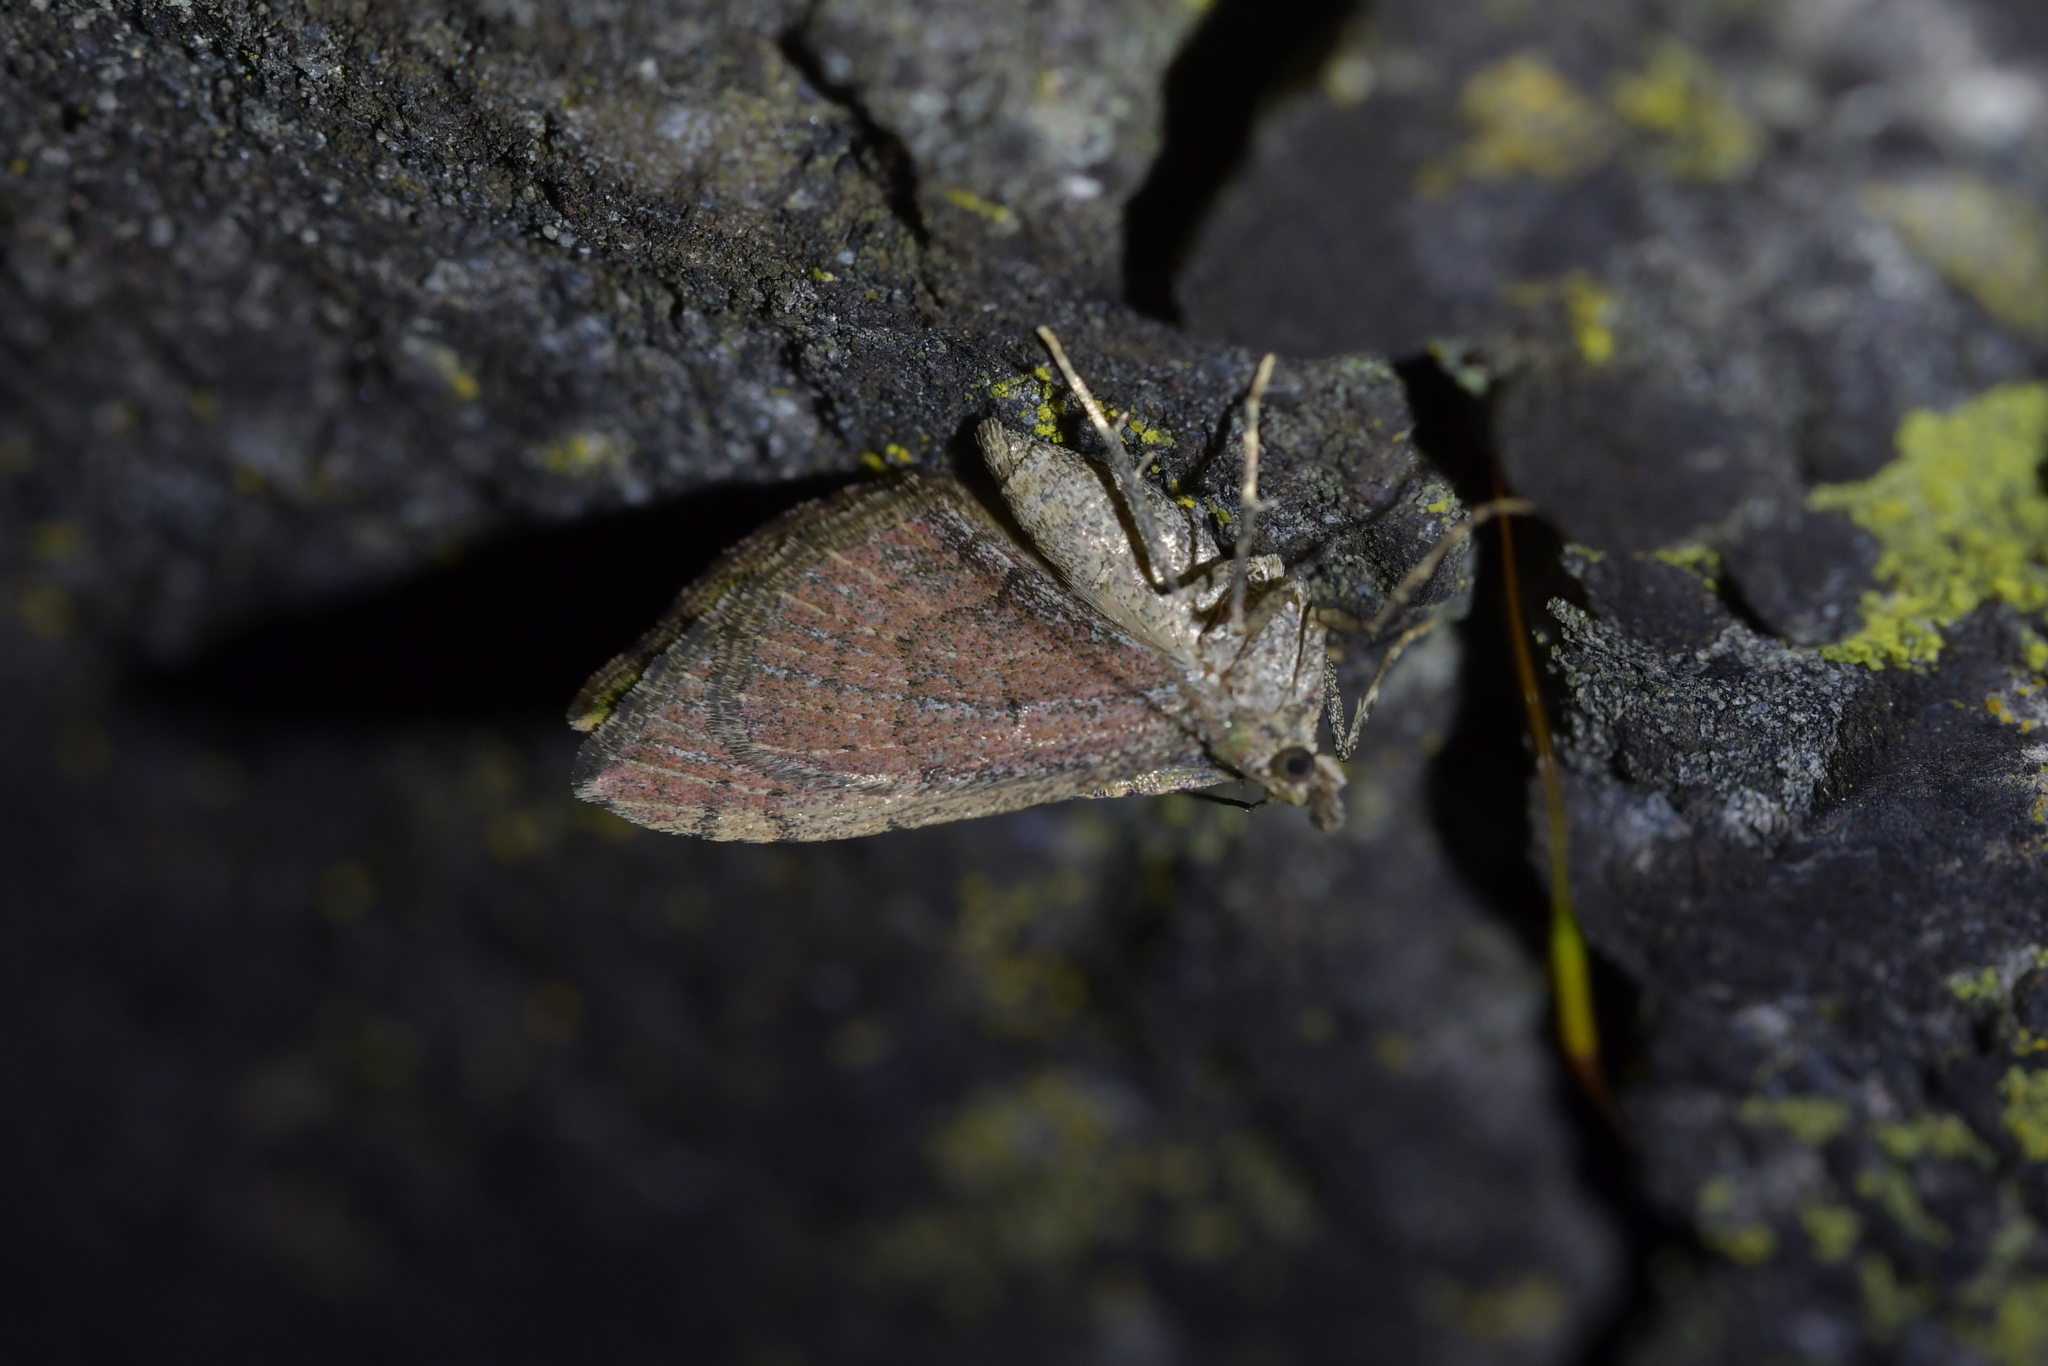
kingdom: Animalia
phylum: Arthropoda
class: Insecta
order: Lepidoptera
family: Geometridae
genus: Epyaxa
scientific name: Epyaxa rosearia
